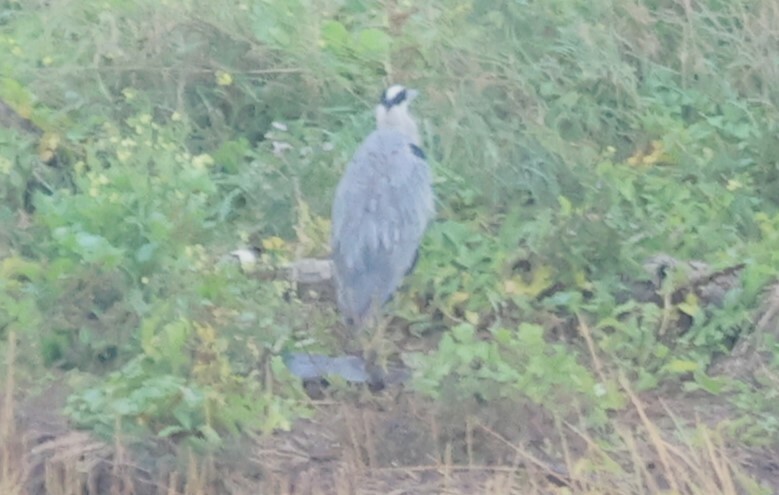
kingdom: Animalia
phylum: Chordata
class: Aves
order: Pelecaniformes
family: Ardeidae
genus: Ardea
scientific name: Ardea herodias
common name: Great blue heron
